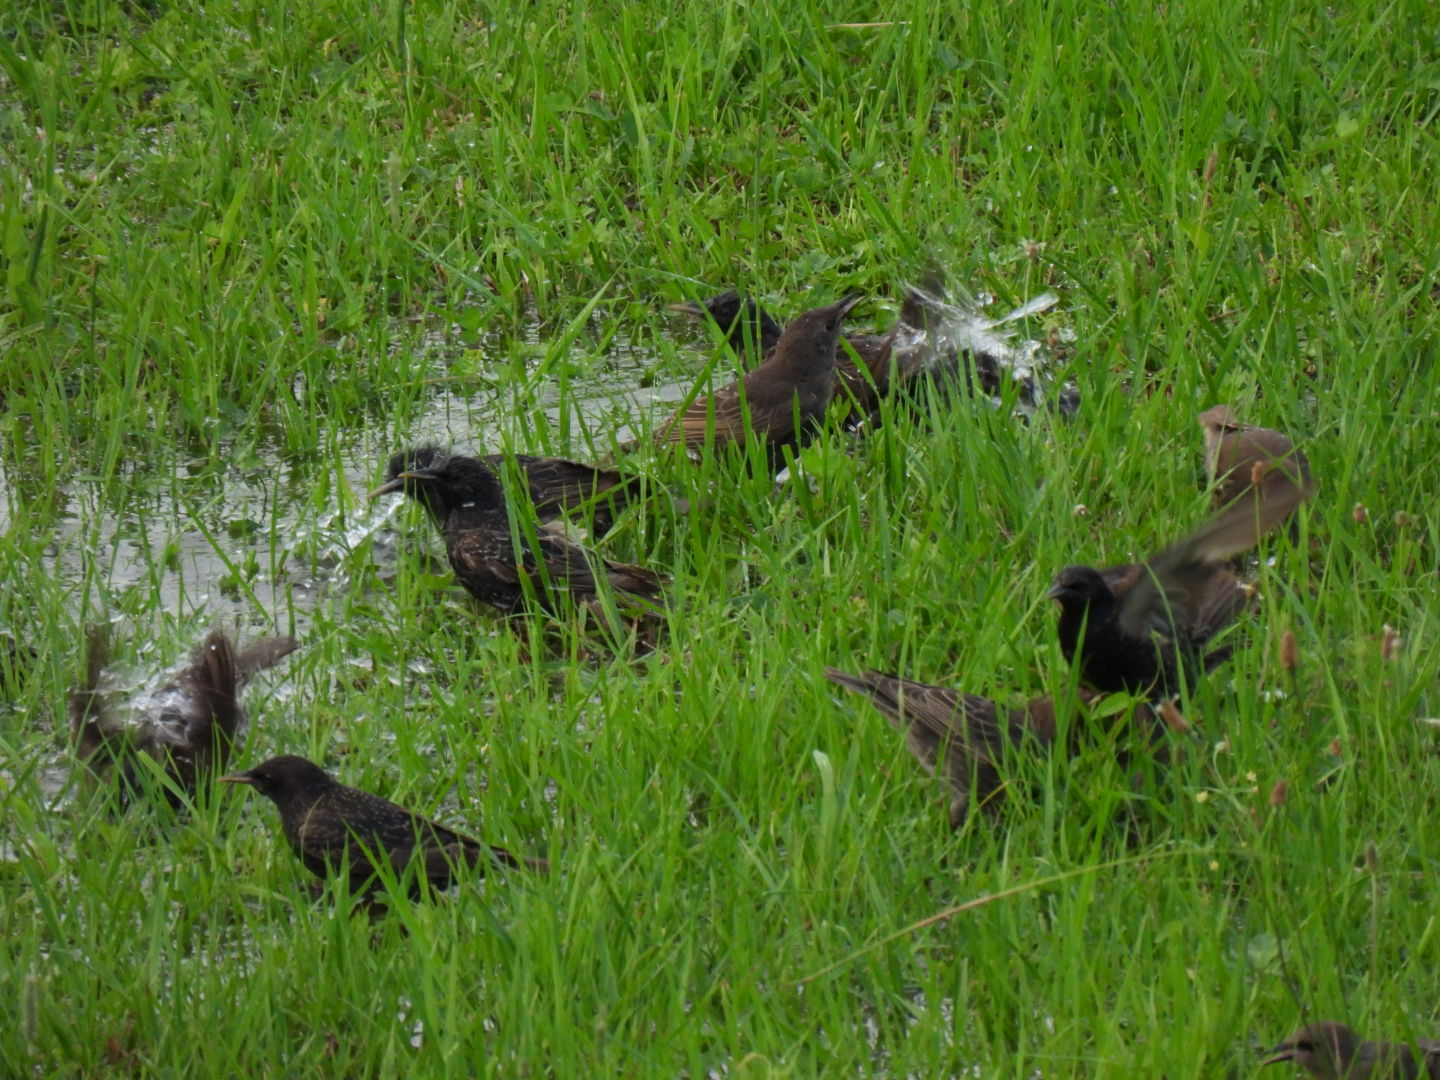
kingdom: Animalia
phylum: Chordata
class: Aves
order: Passeriformes
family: Sturnidae
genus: Sturnus
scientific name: Sturnus vulgaris
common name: Common starling
